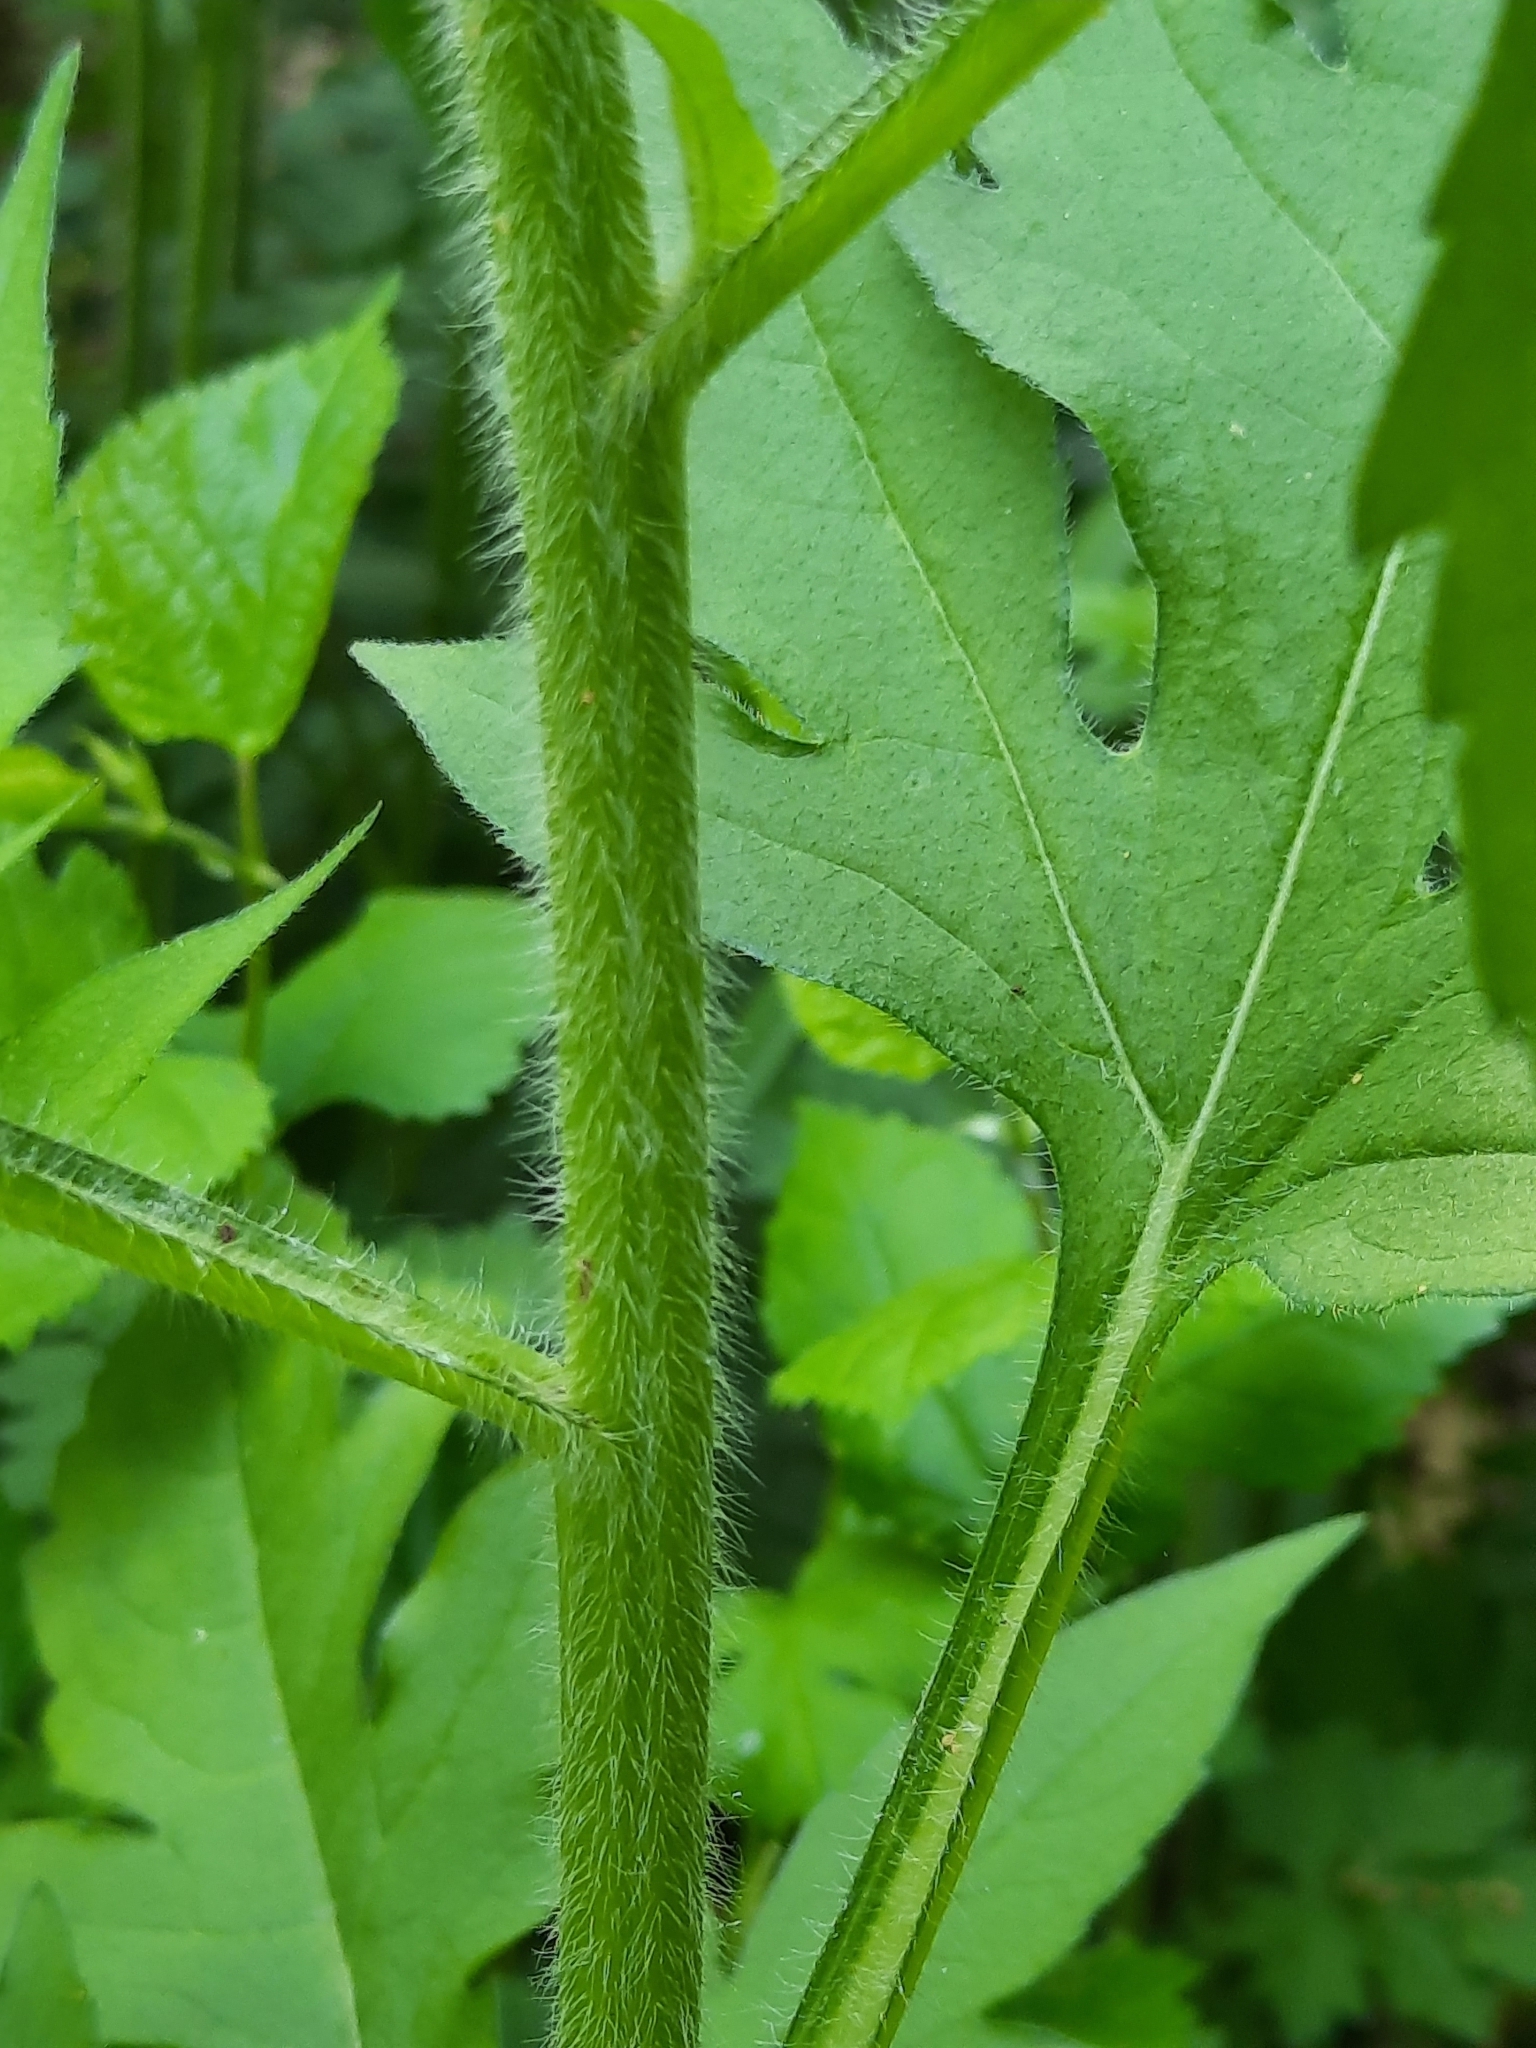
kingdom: Plantae
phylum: Tracheophyta
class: Magnoliopsida
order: Asterales
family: Asteraceae
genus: Rudbeckia
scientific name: Rudbeckia triloba
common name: Thin-leaved coneflower
